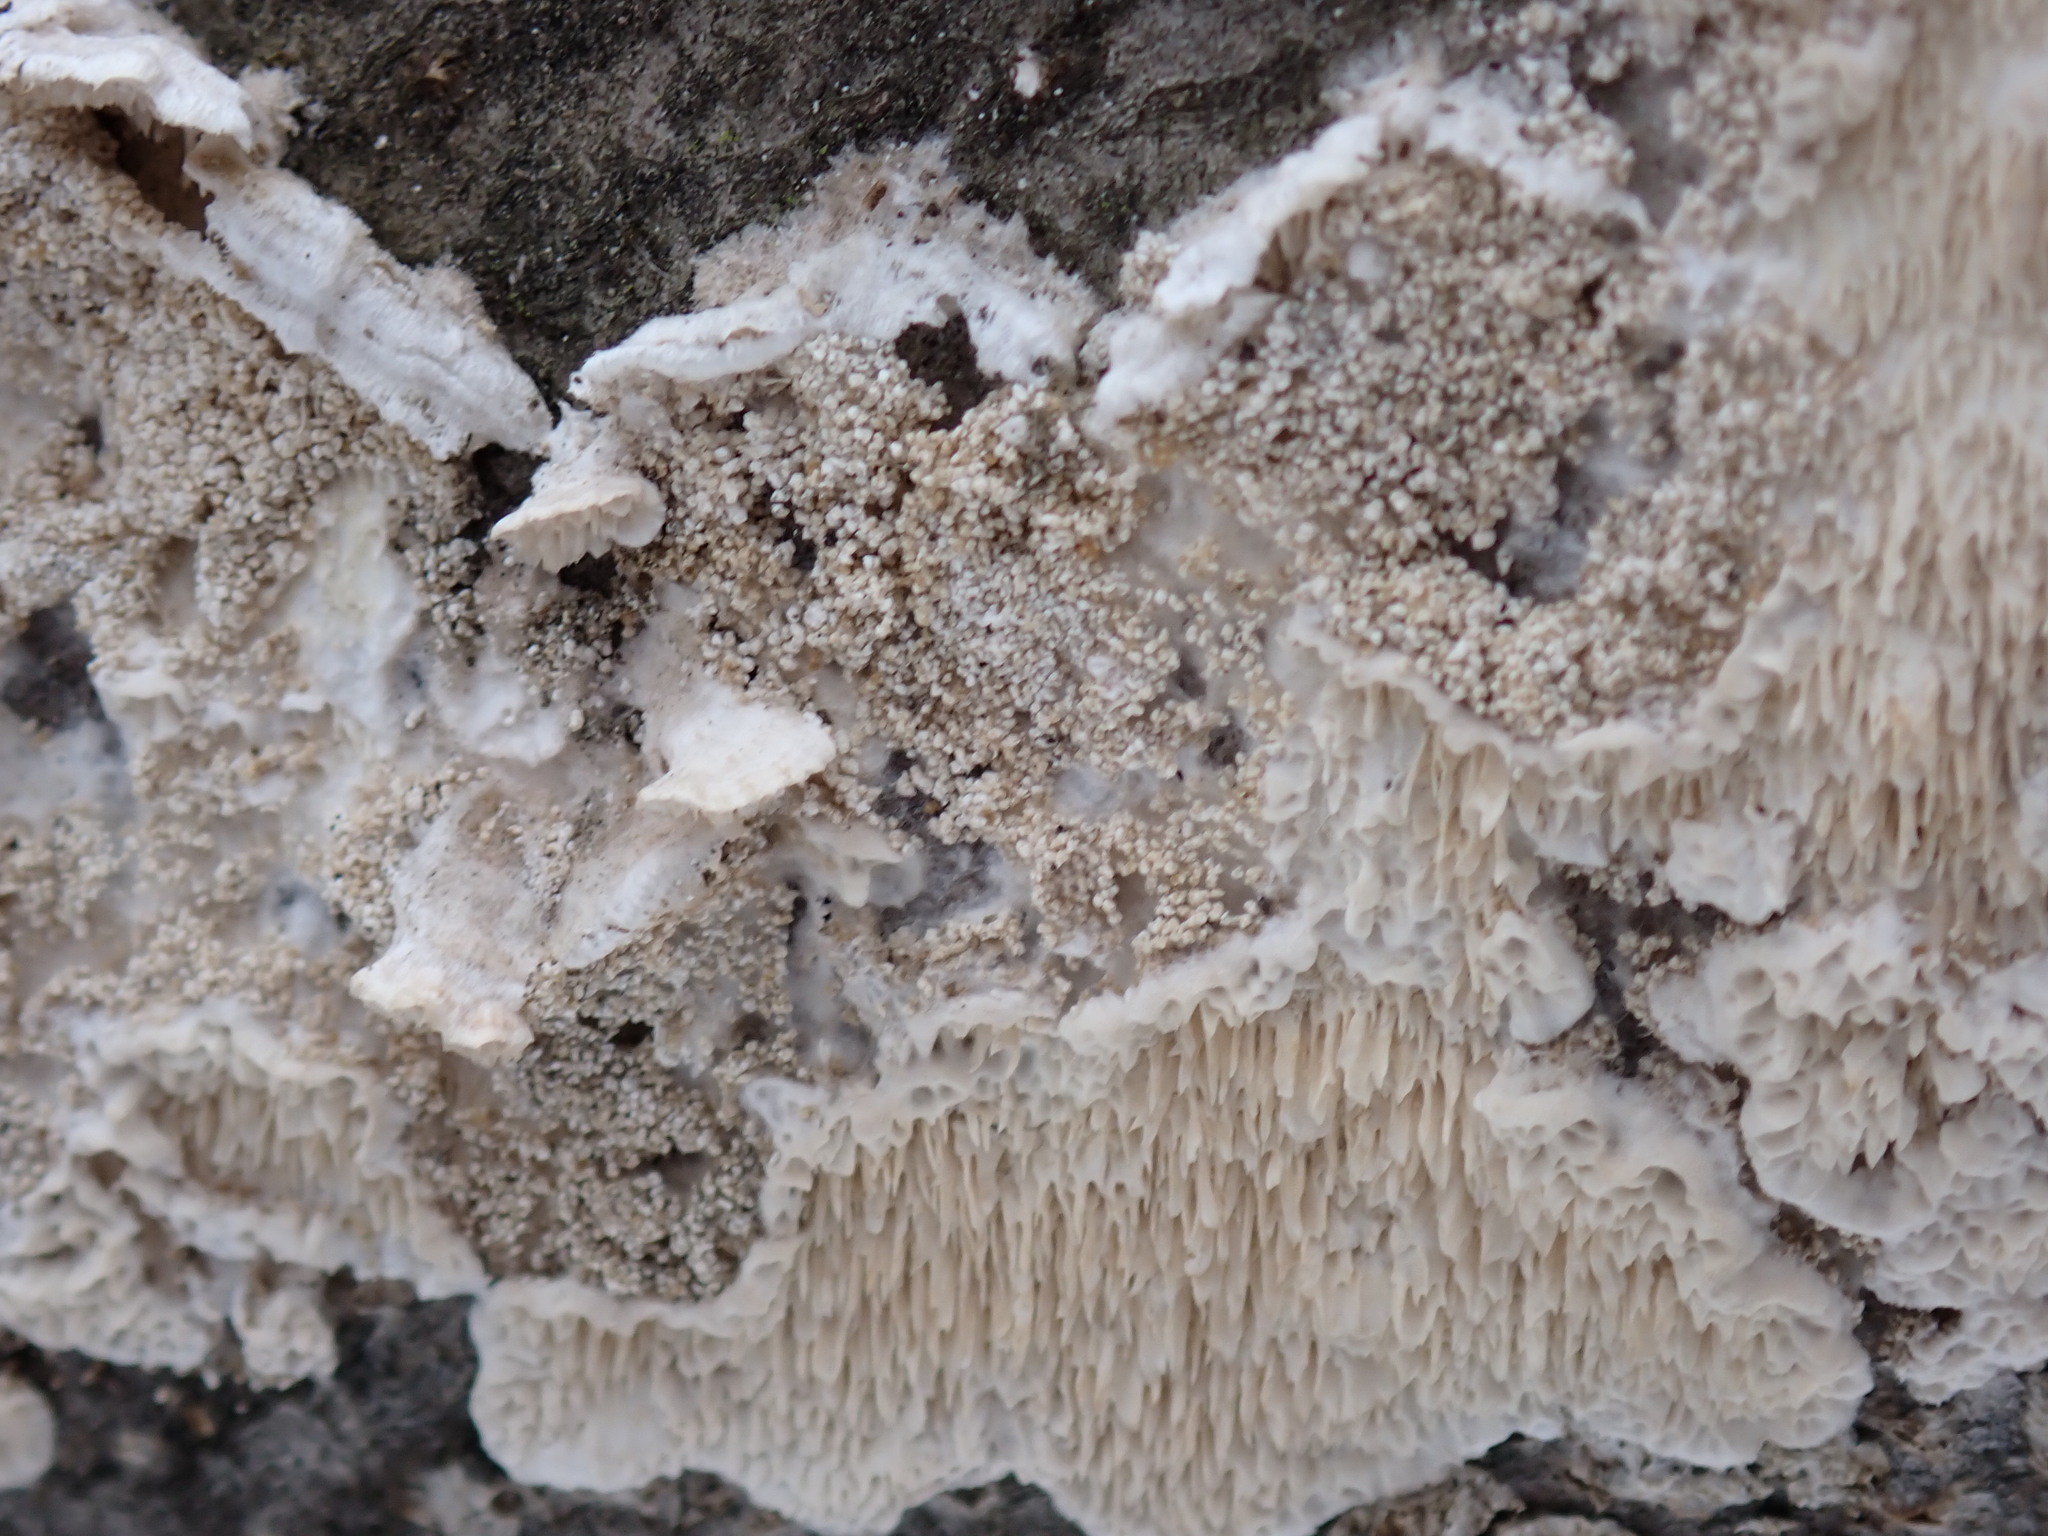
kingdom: Fungi
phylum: Basidiomycota
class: Agaricomycetes
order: Polyporales
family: Irpicaceae
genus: Irpex
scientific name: Irpex lacteus
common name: Milk-white toothed polypore
